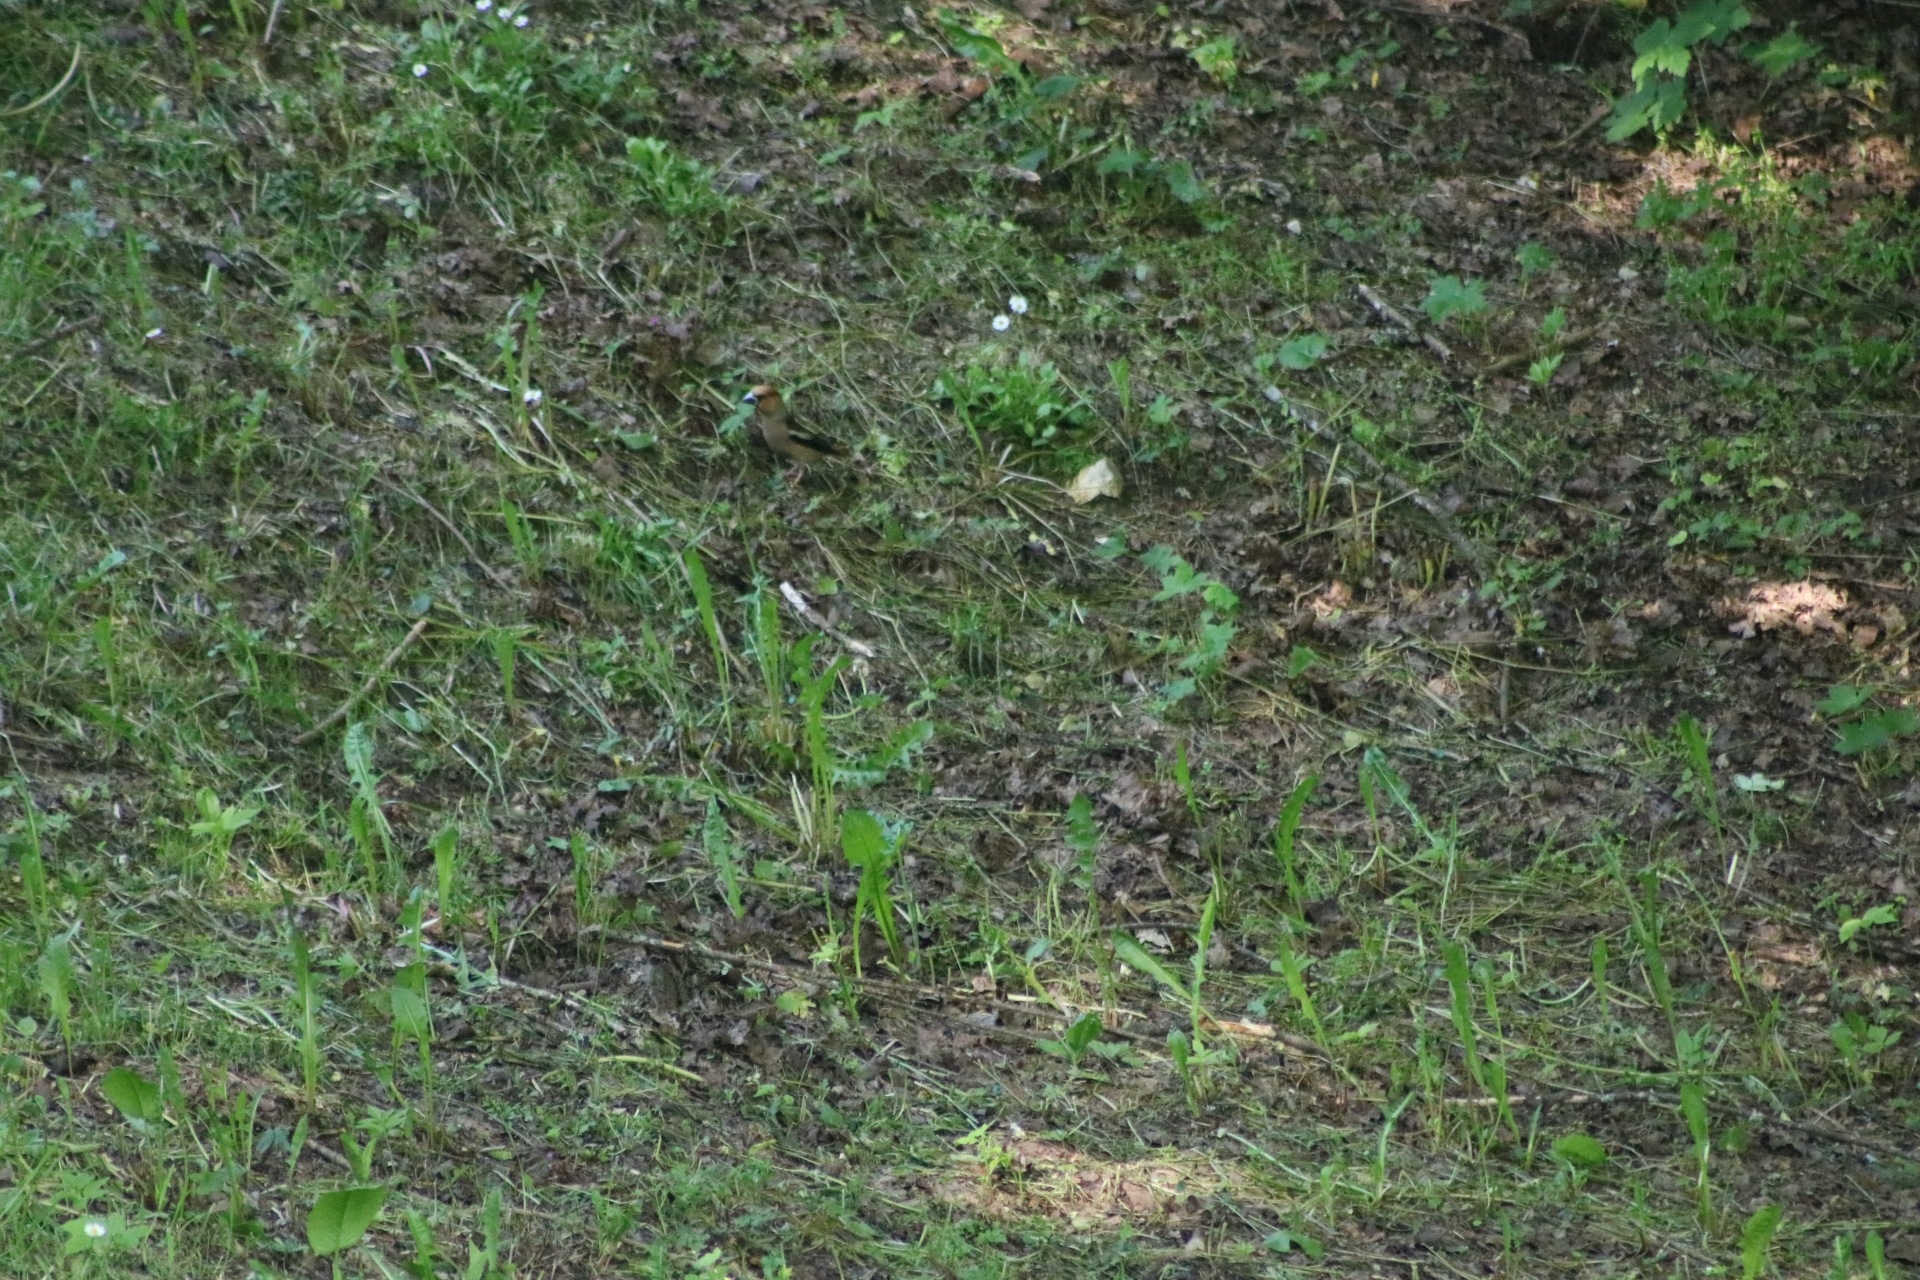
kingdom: Animalia
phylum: Chordata
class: Aves
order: Passeriformes
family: Fringillidae
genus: Coccothraustes
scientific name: Coccothraustes coccothraustes
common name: Hawfinch
